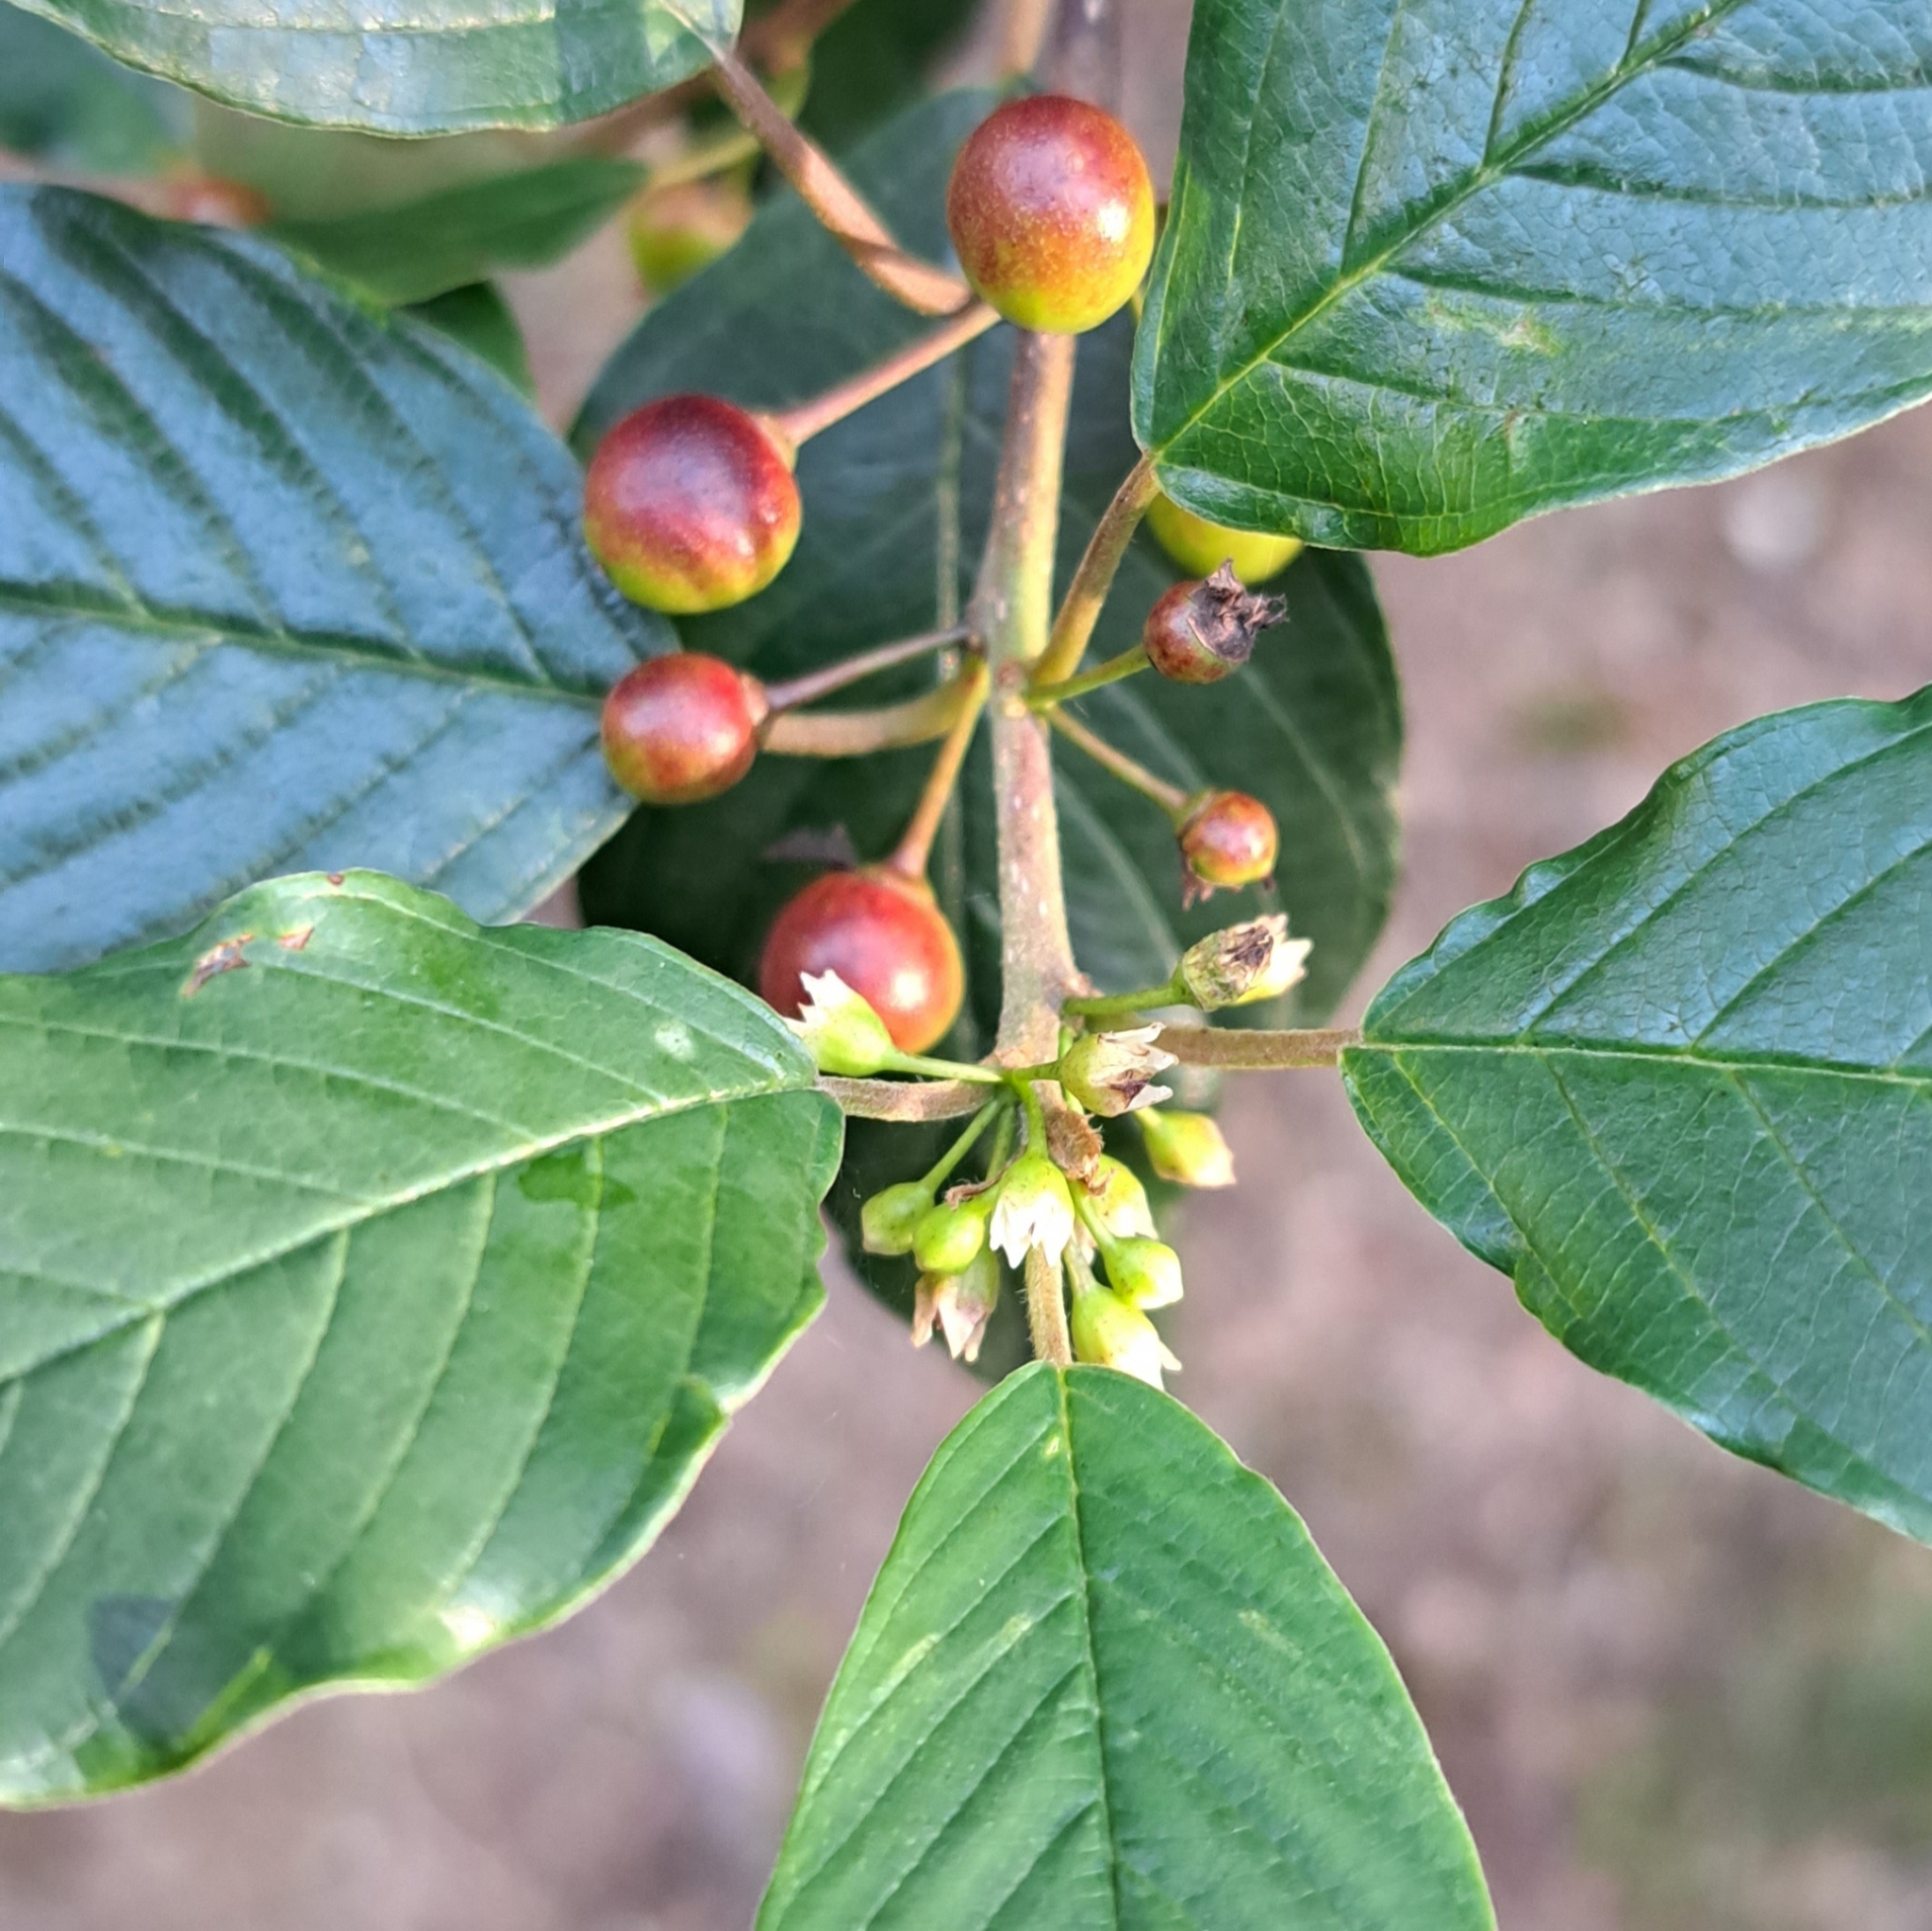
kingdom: Plantae
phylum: Tracheophyta
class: Magnoliopsida
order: Rosales
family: Rhamnaceae
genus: Frangula
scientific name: Frangula alnus
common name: Alder buckthorn
